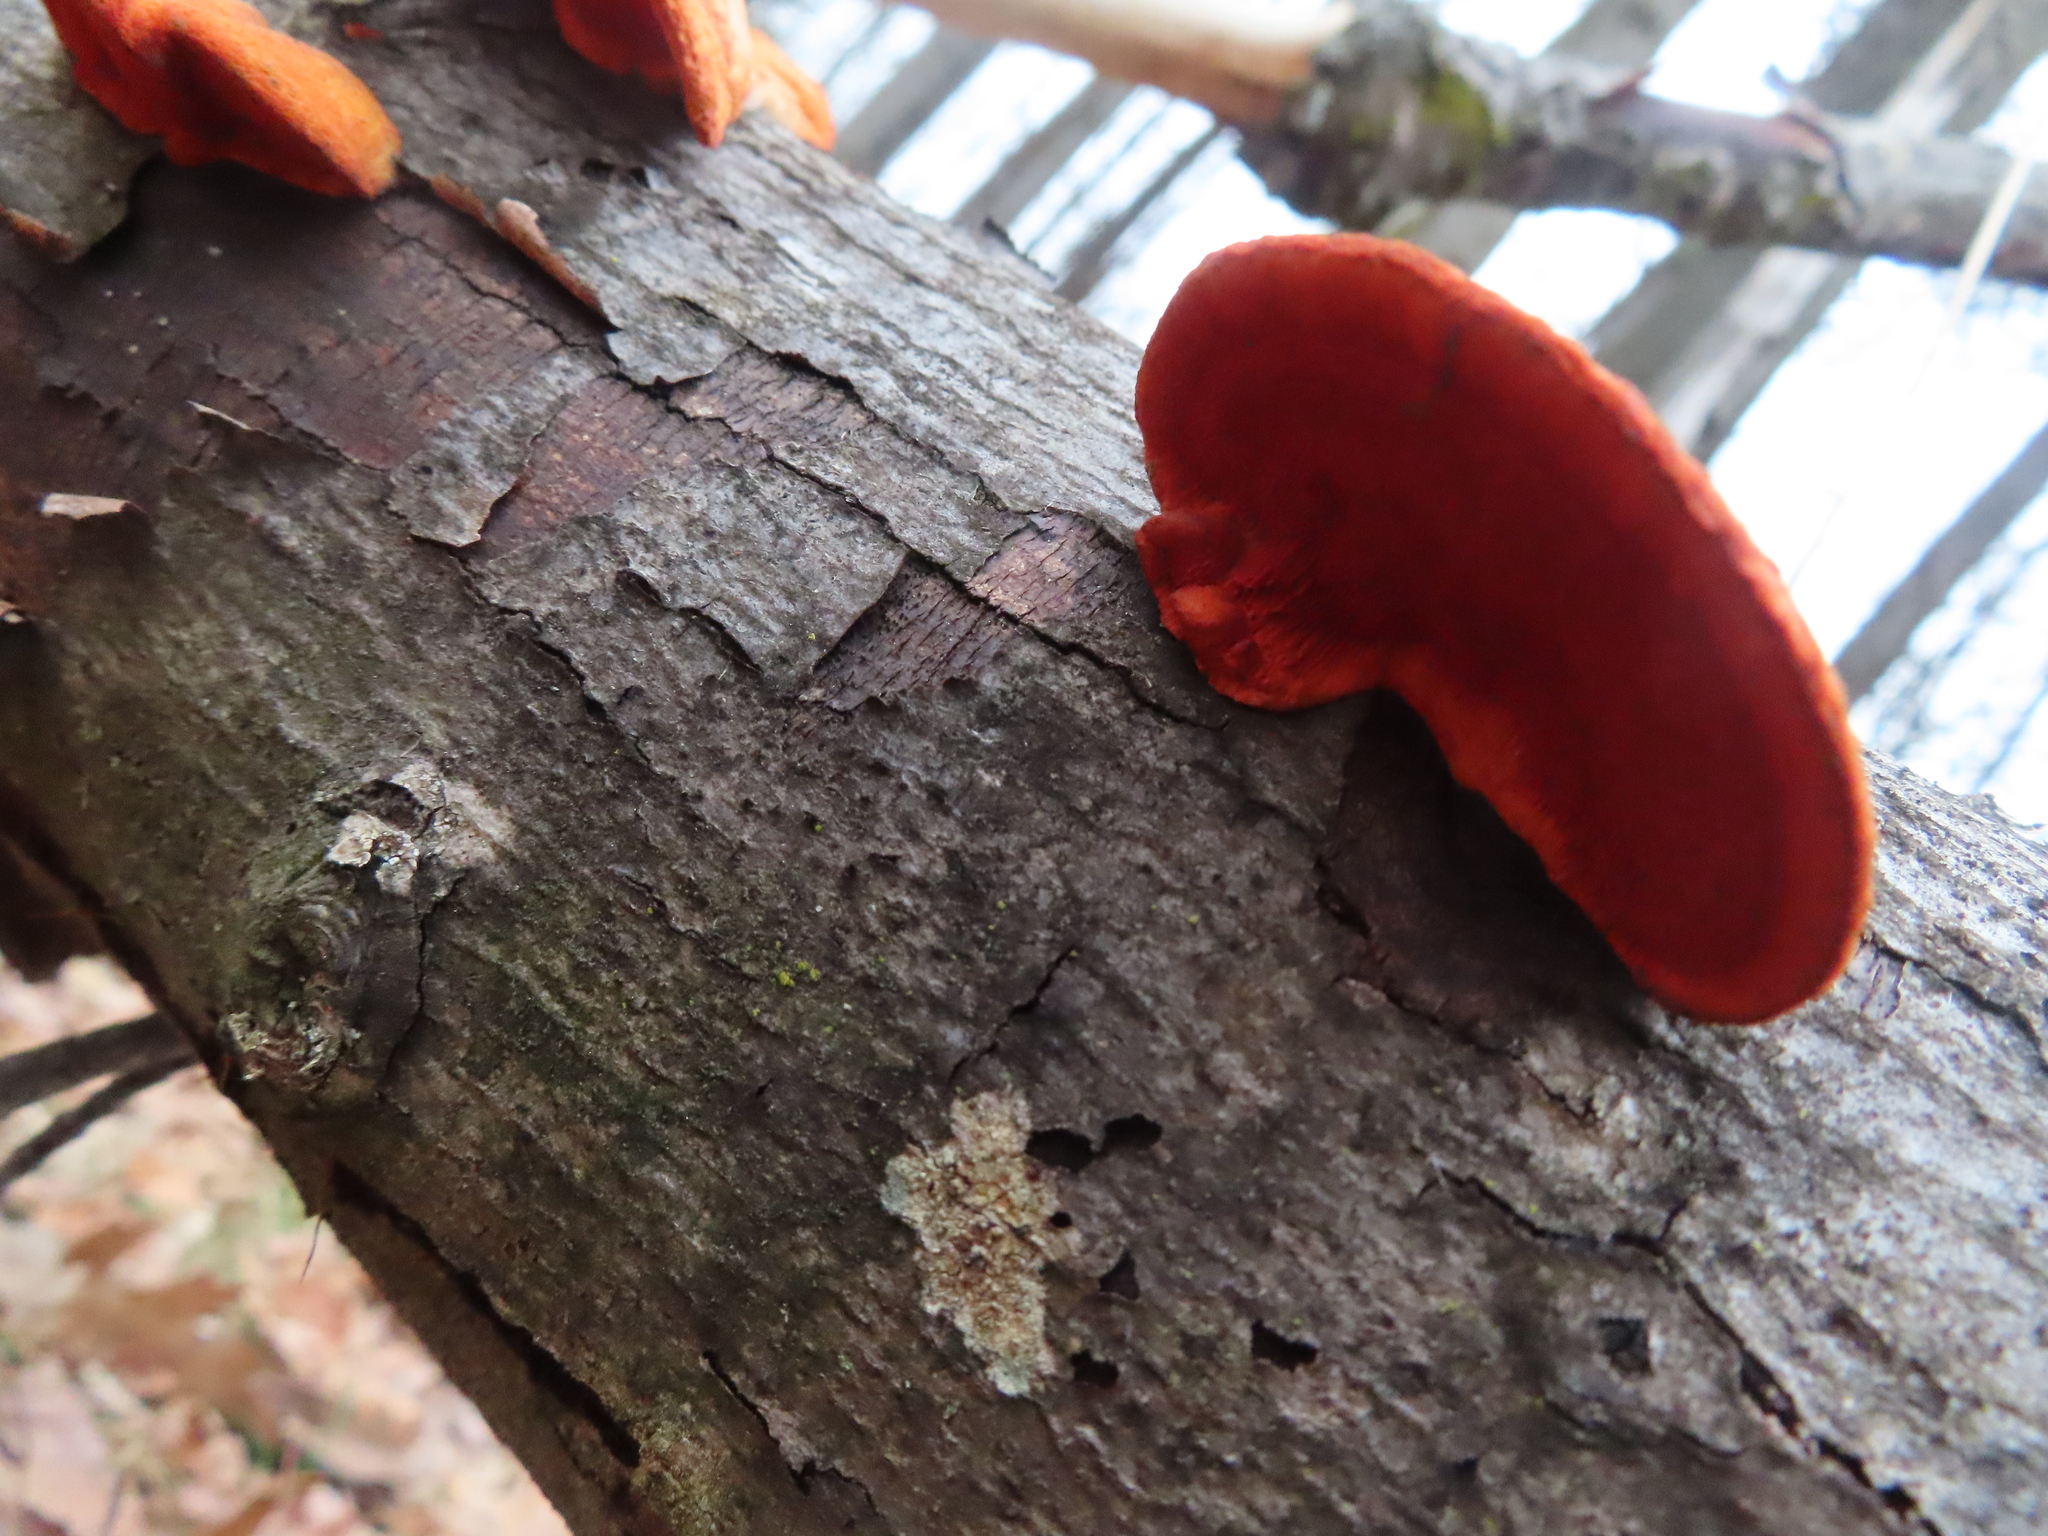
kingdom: Fungi
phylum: Basidiomycota
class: Agaricomycetes
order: Polyporales
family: Polyporaceae
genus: Trametes
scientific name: Trametes cinnabarina
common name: Northern cinnabar polypore
